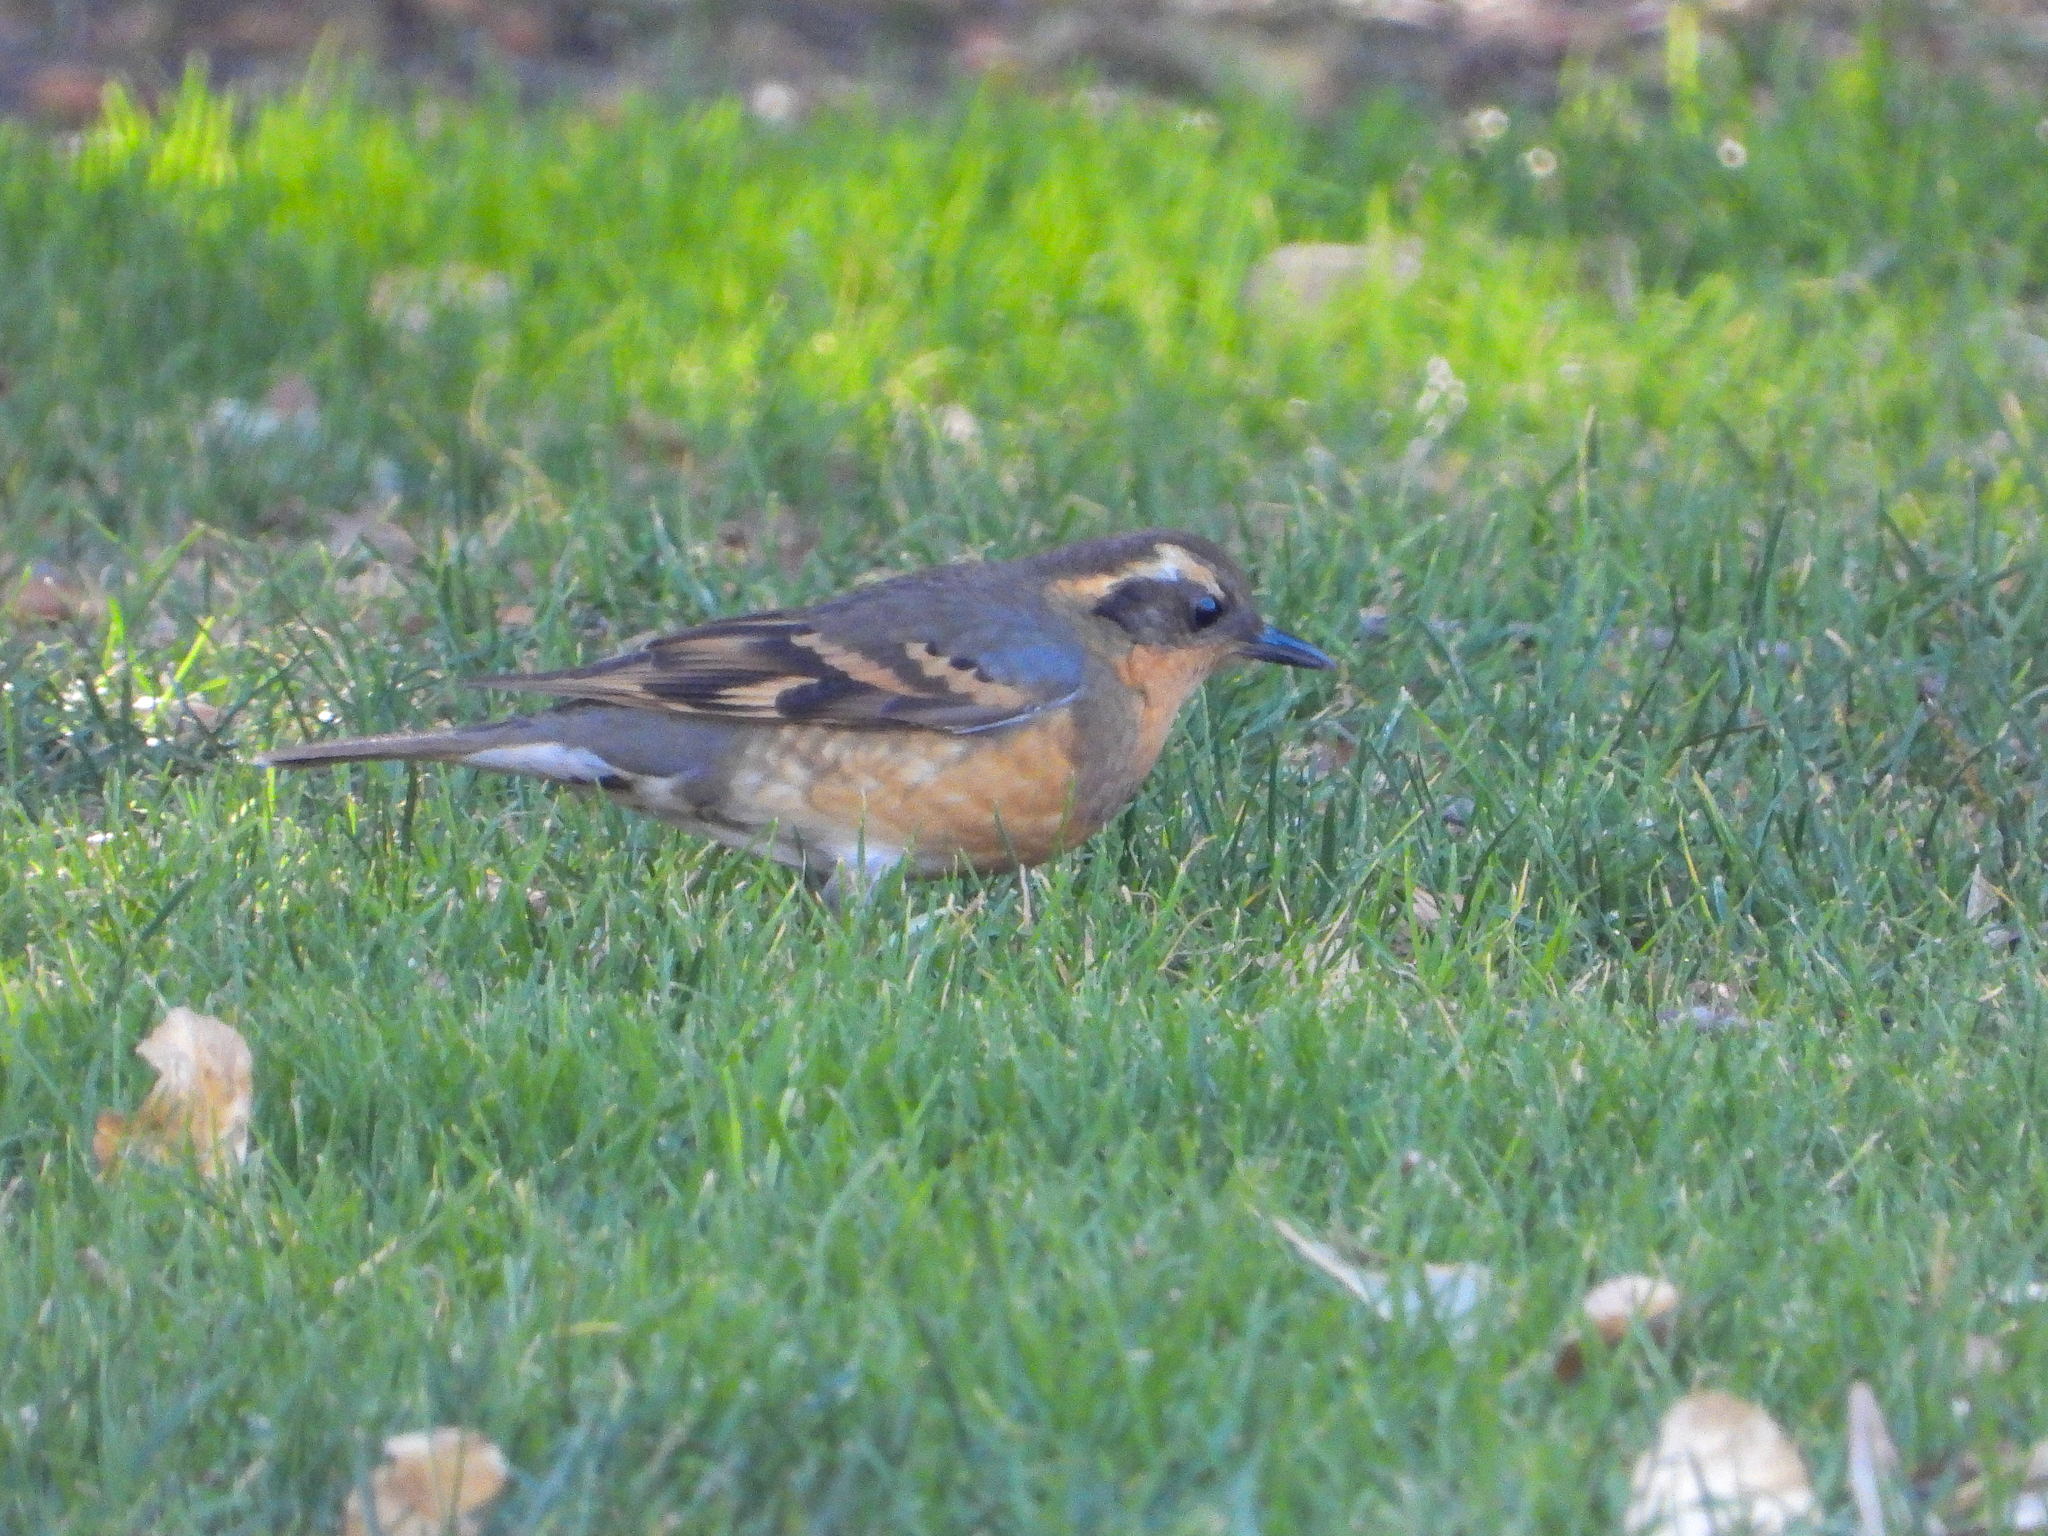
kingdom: Animalia
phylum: Chordata
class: Aves
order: Passeriformes
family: Turdidae
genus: Ixoreus
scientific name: Ixoreus naevius
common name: Varied thrush
